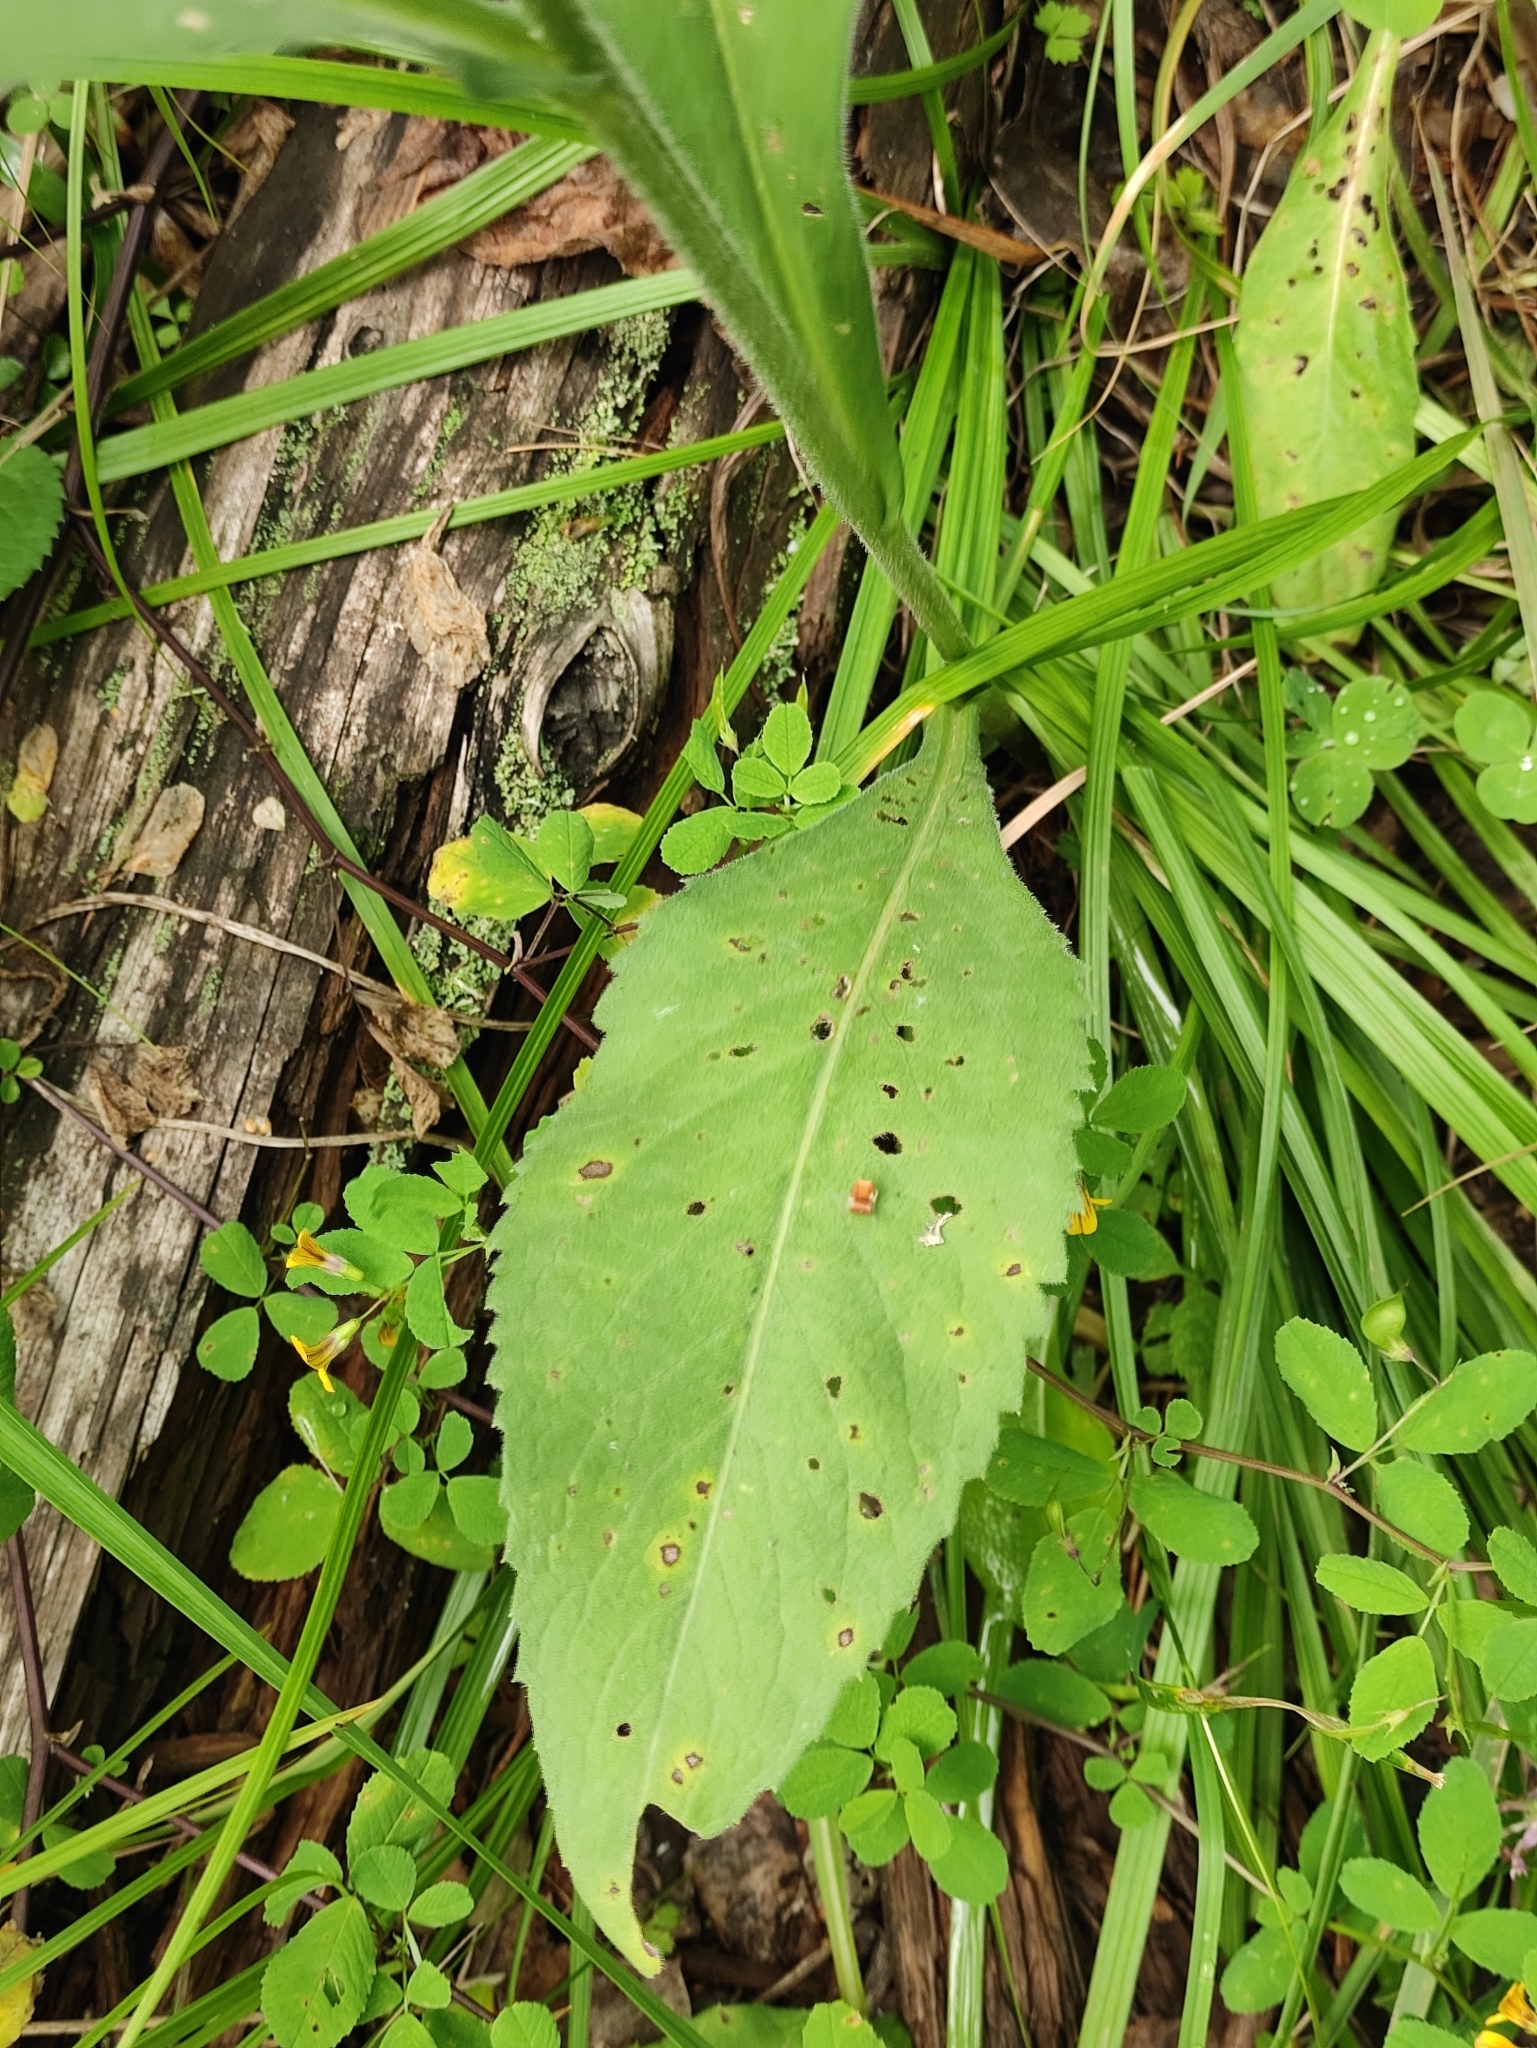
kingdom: Plantae
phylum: Tracheophyta
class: Magnoliopsida
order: Asterales
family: Asteraceae
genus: Aster
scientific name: Aster tataricus
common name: Tatarian aster
